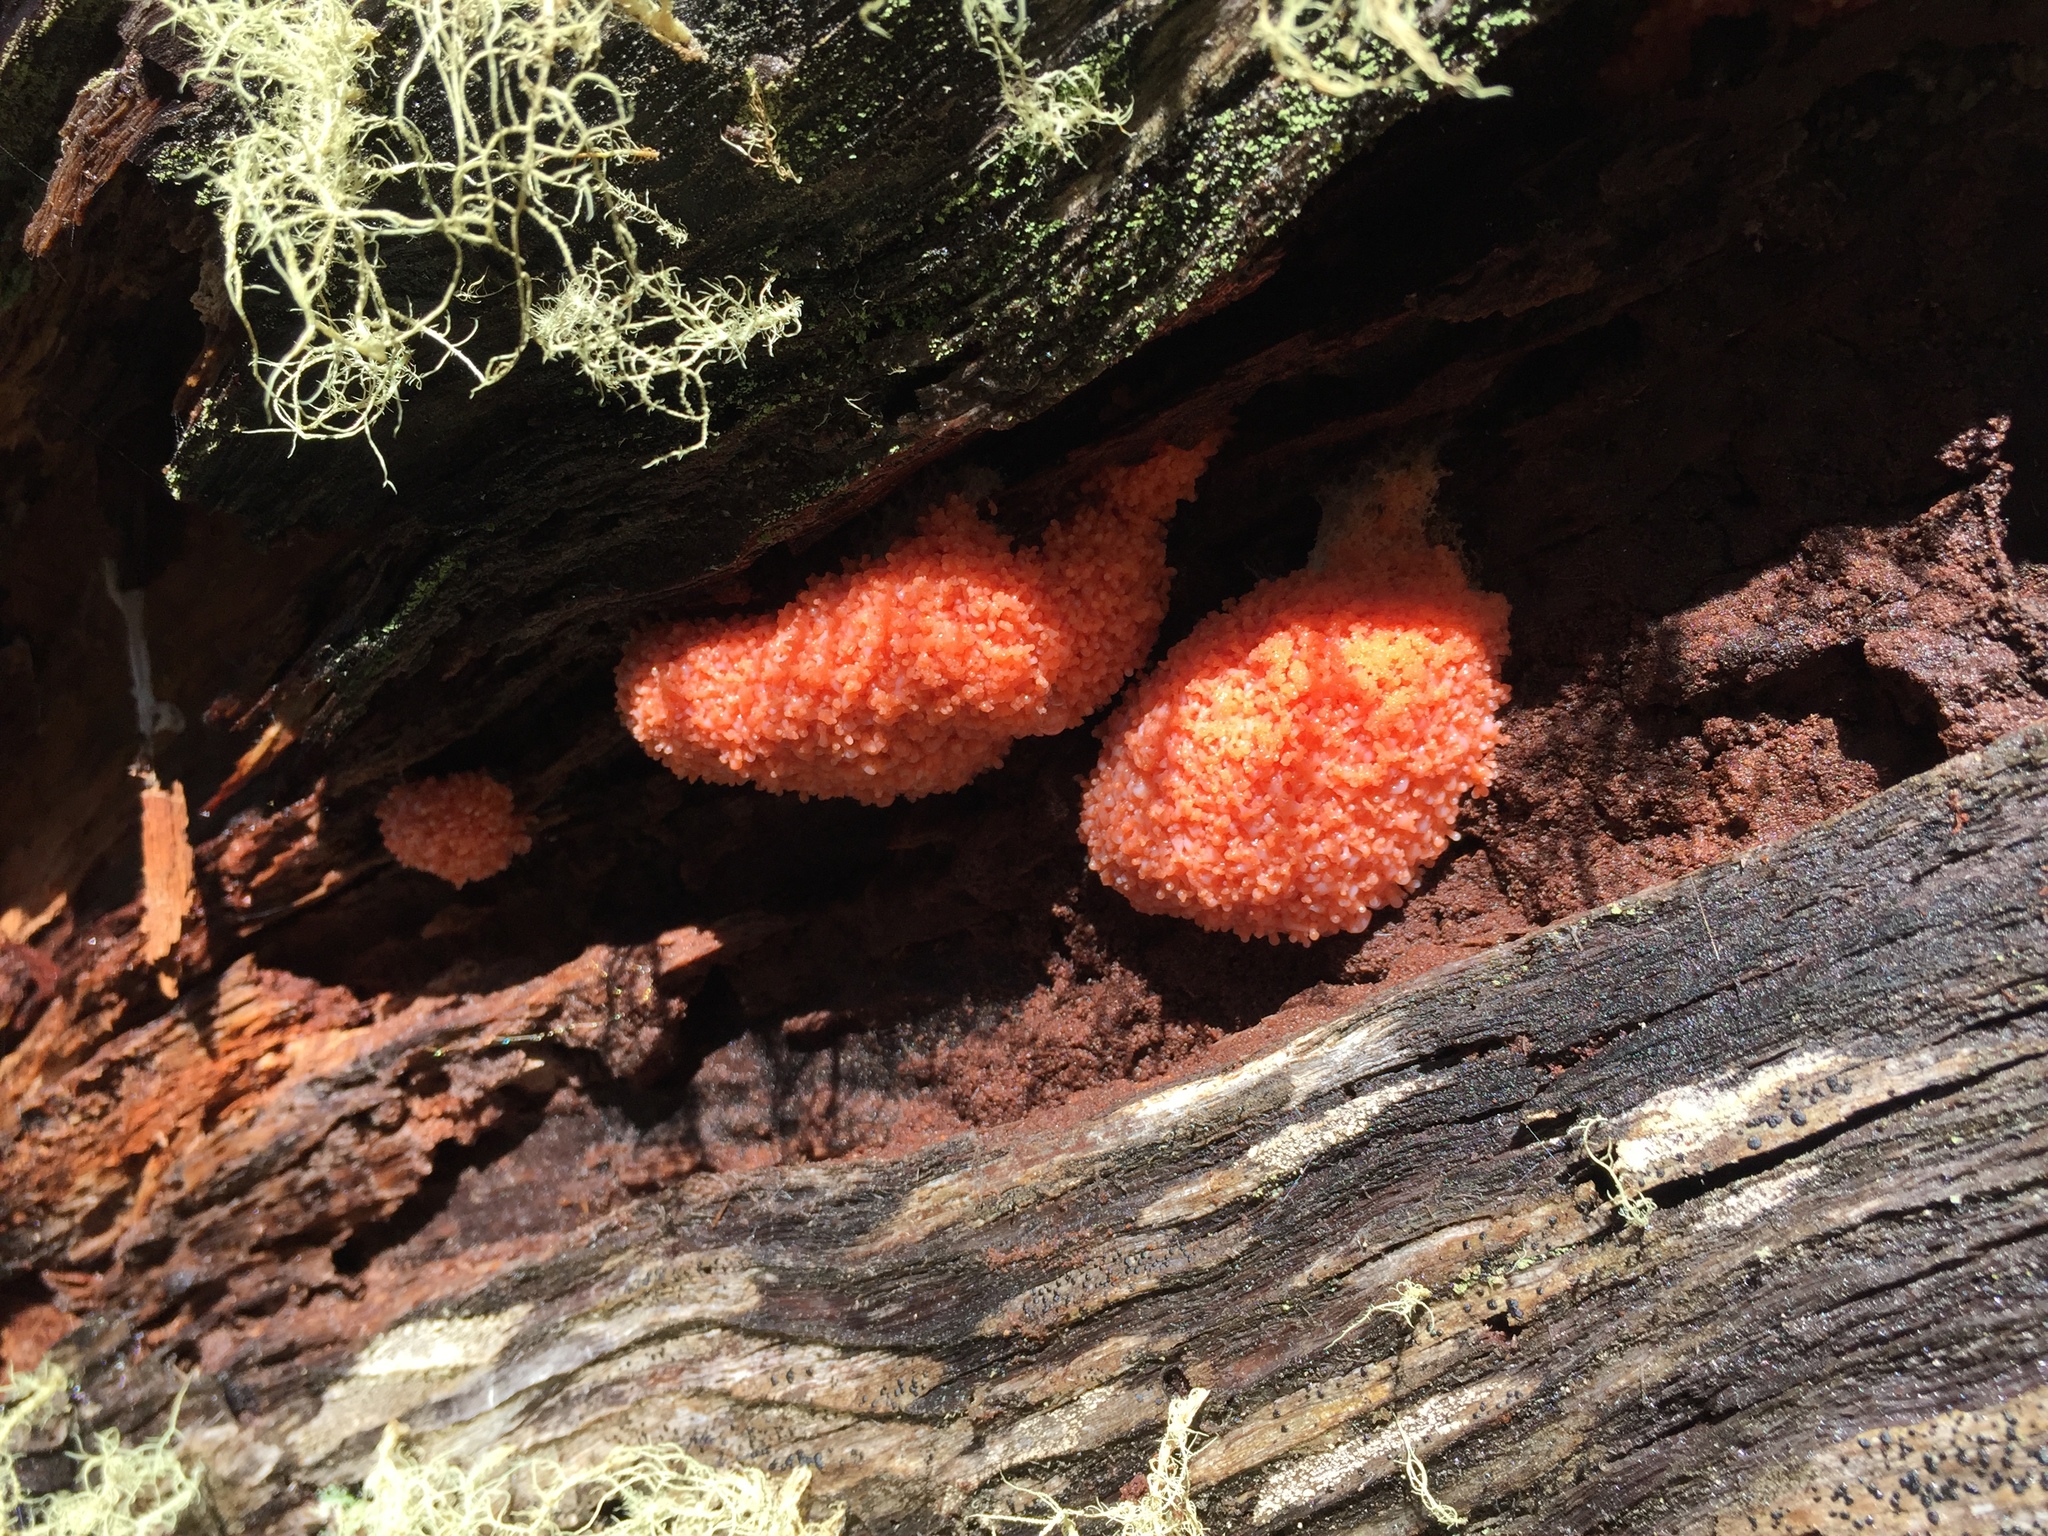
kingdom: Protozoa
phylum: Mycetozoa
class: Myxomycetes
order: Cribrariales
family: Tubiferaceae
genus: Tubifera
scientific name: Tubifera ferruginosa
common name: Red raspberry slime mold
